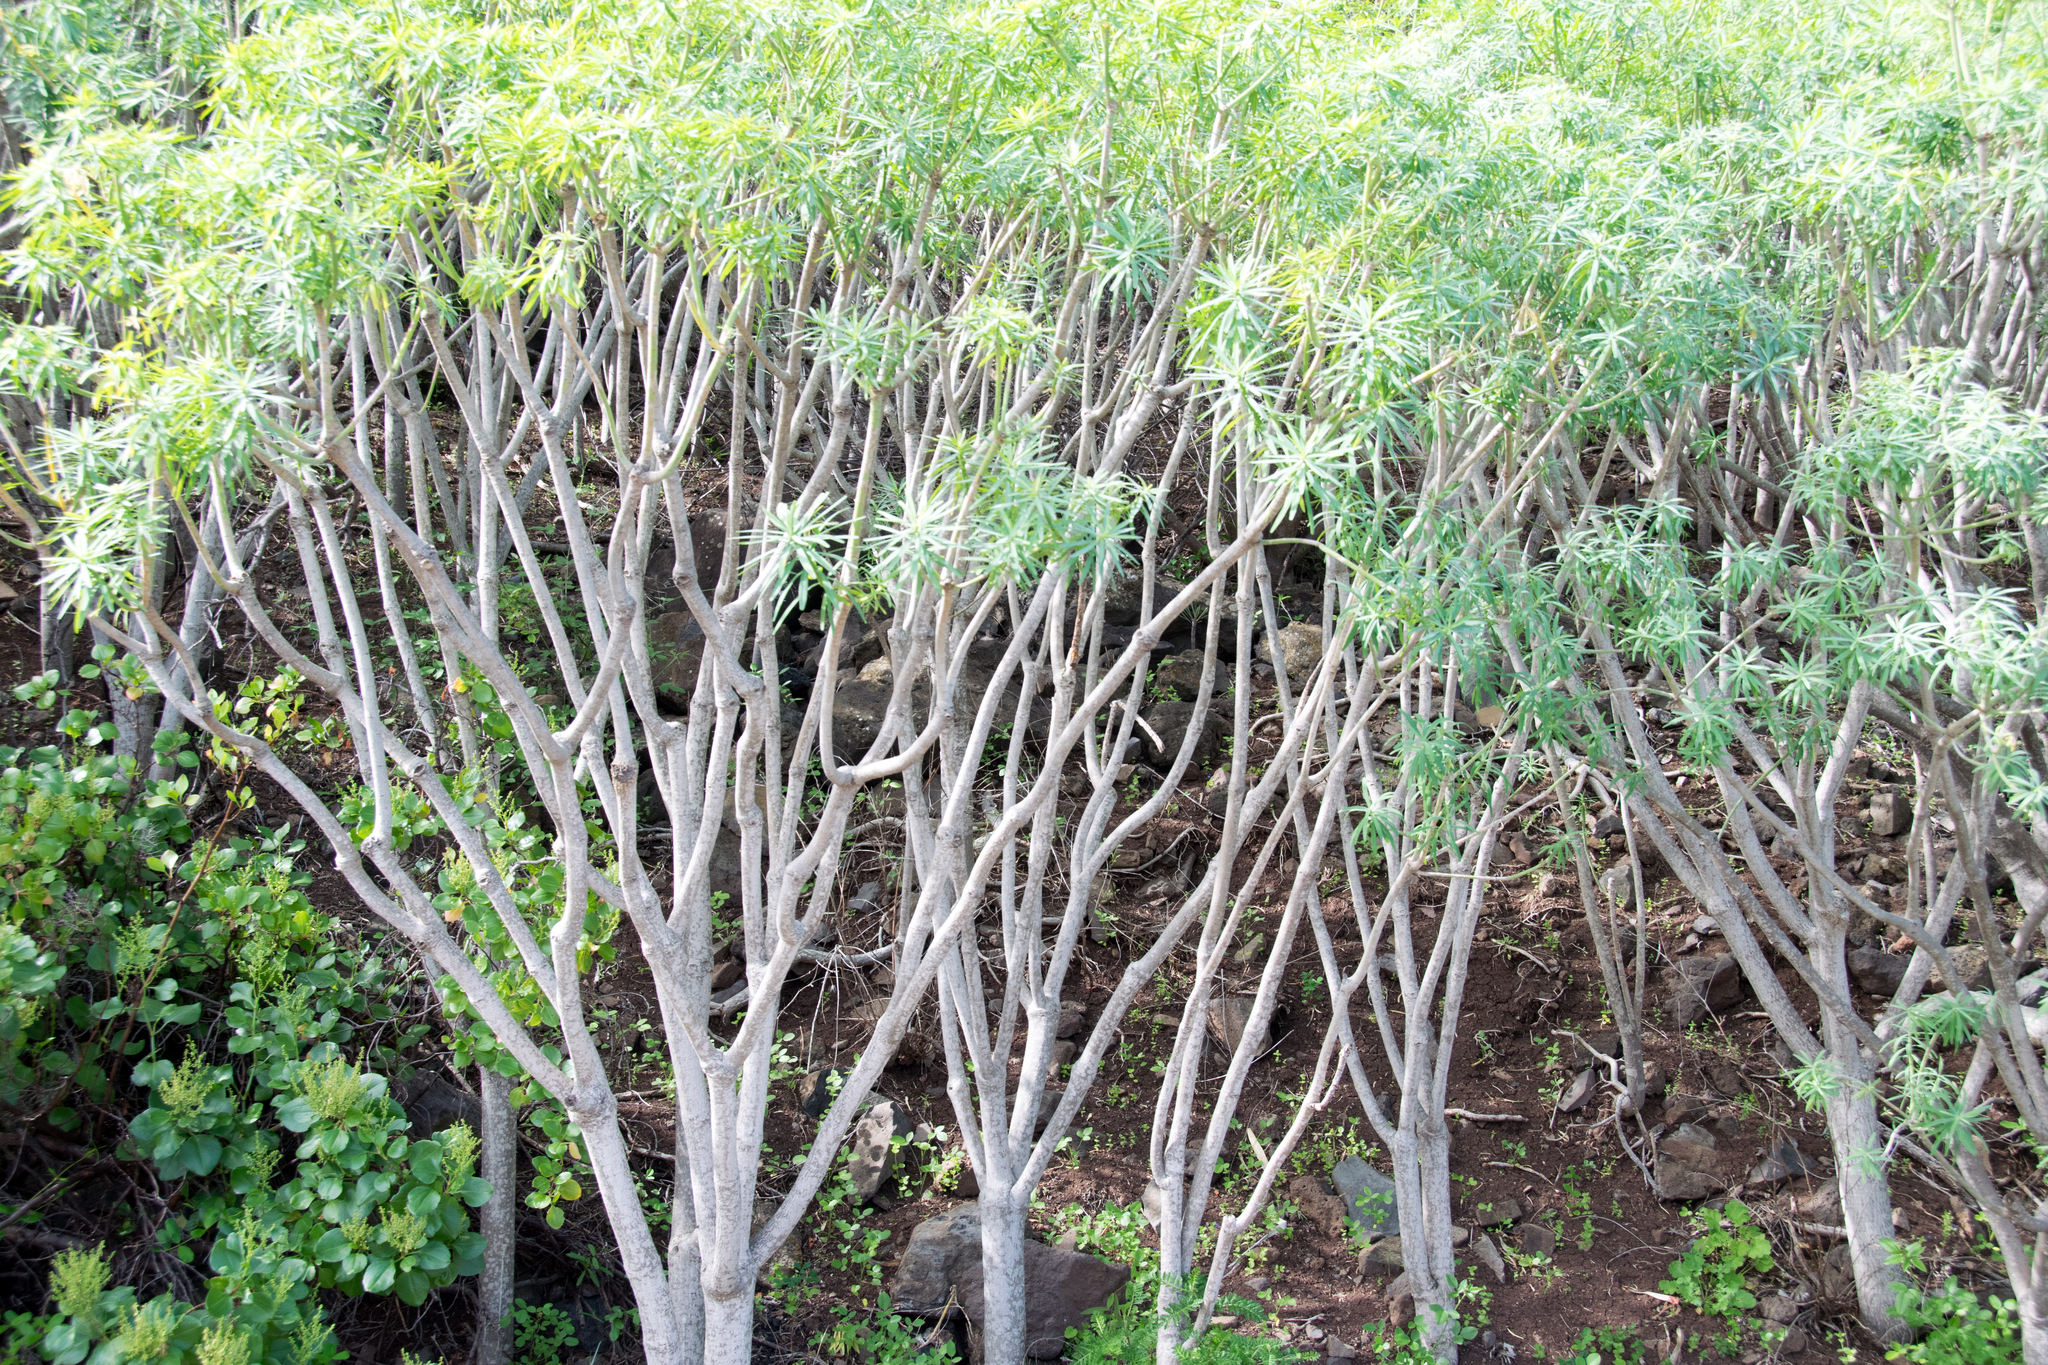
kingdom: Plantae
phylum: Tracheophyta
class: Magnoliopsida
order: Malpighiales
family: Euphorbiaceae
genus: Euphorbia
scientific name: Euphorbia lamarckii
